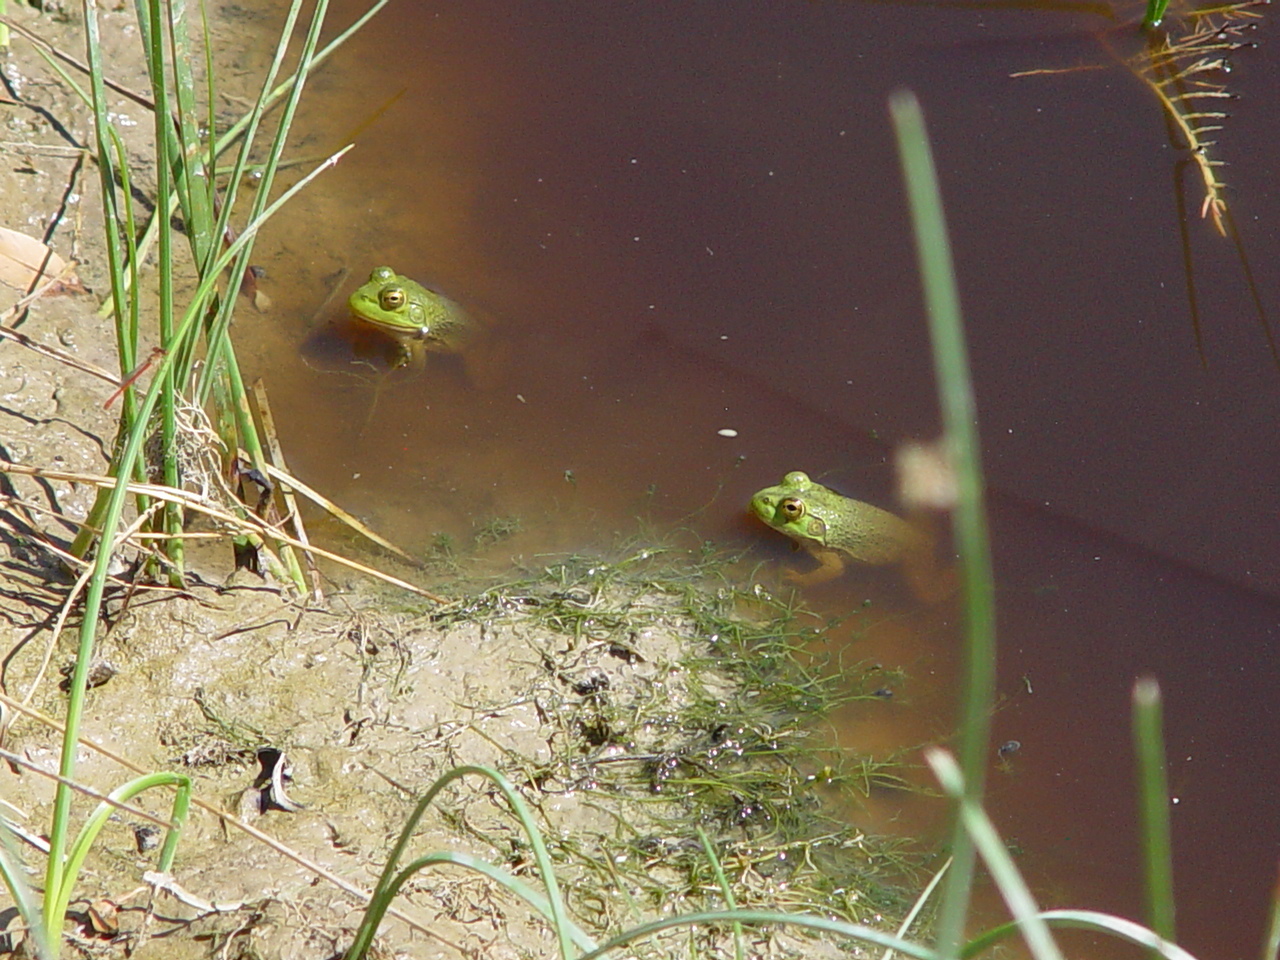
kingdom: Animalia
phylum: Chordata
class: Amphibia
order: Anura
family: Ranidae
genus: Lithobates
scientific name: Lithobates catesbeianus
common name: American bullfrog
